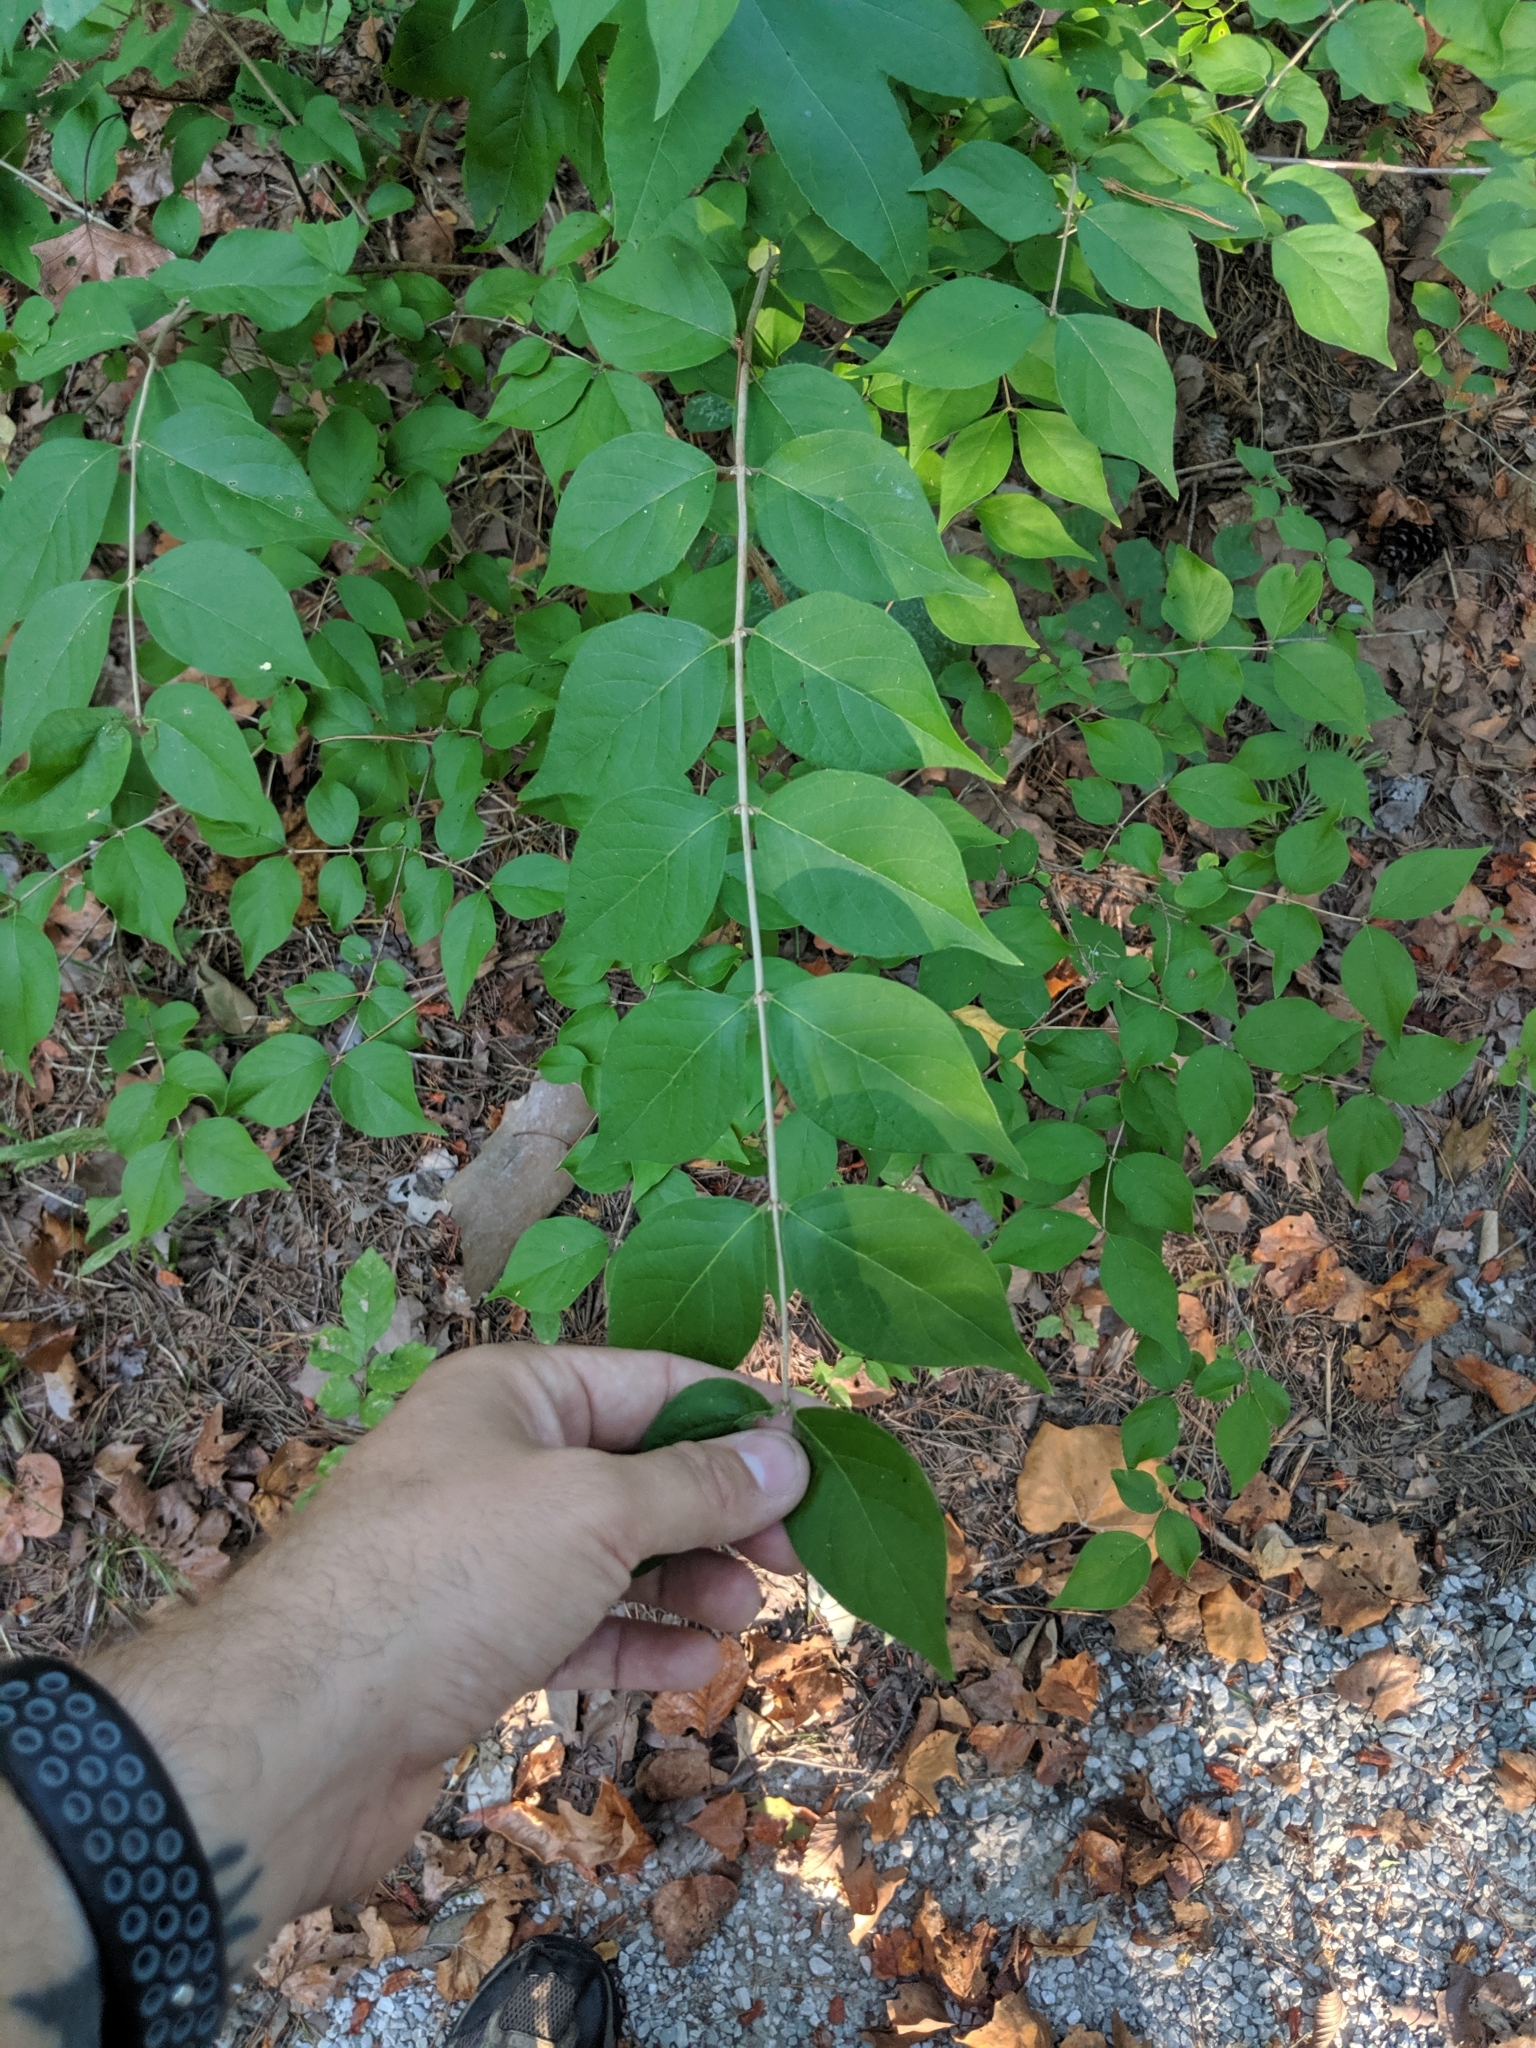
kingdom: Plantae
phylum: Tracheophyta
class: Magnoliopsida
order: Dipsacales
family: Caprifoliaceae
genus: Lonicera
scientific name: Lonicera maackii
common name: Amur honeysuckle
